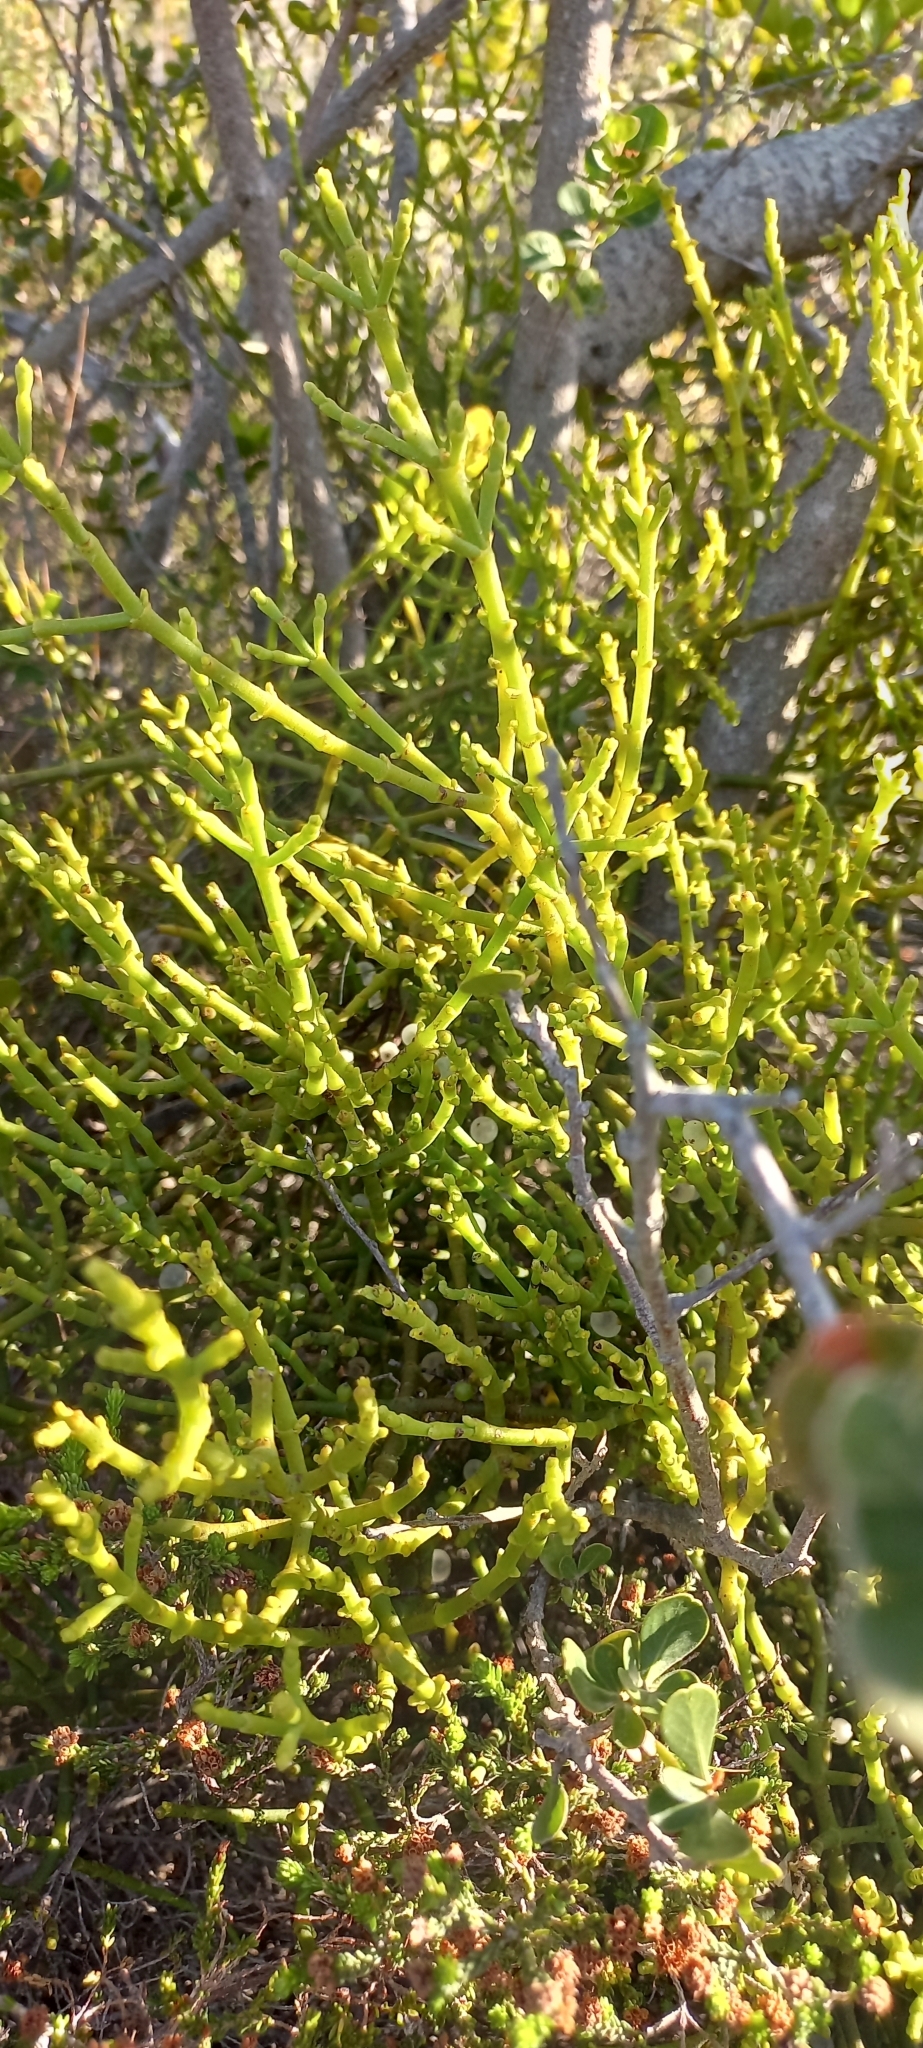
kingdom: Plantae
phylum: Tracheophyta
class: Magnoliopsida
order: Santalales
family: Viscaceae
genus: Viscum
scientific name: Viscum capense
